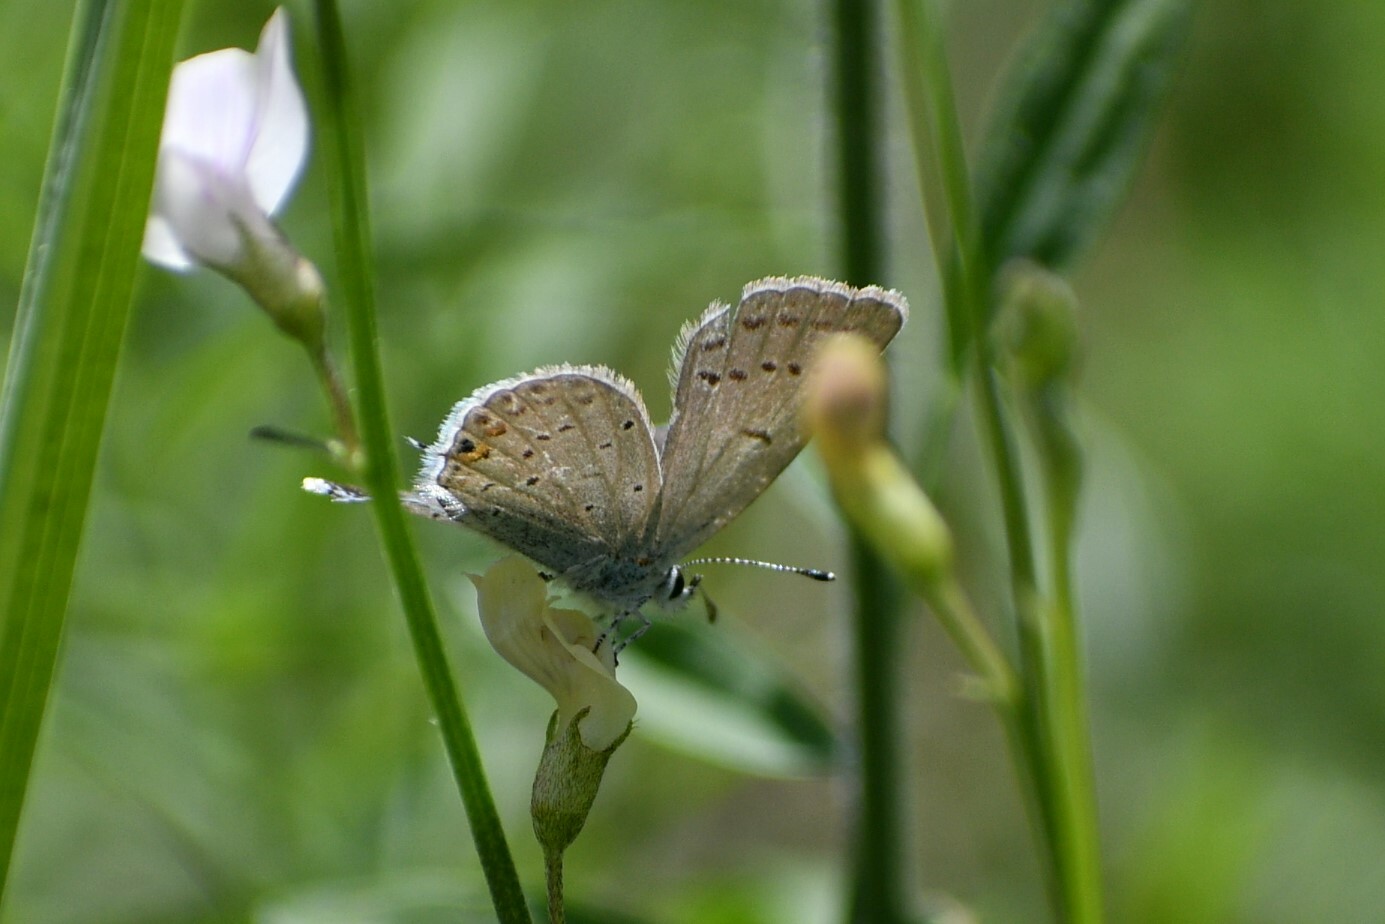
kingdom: Animalia
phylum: Arthropoda
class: Insecta
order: Lepidoptera
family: Lycaenidae
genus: Elkalyce
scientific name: Elkalyce amyntula
